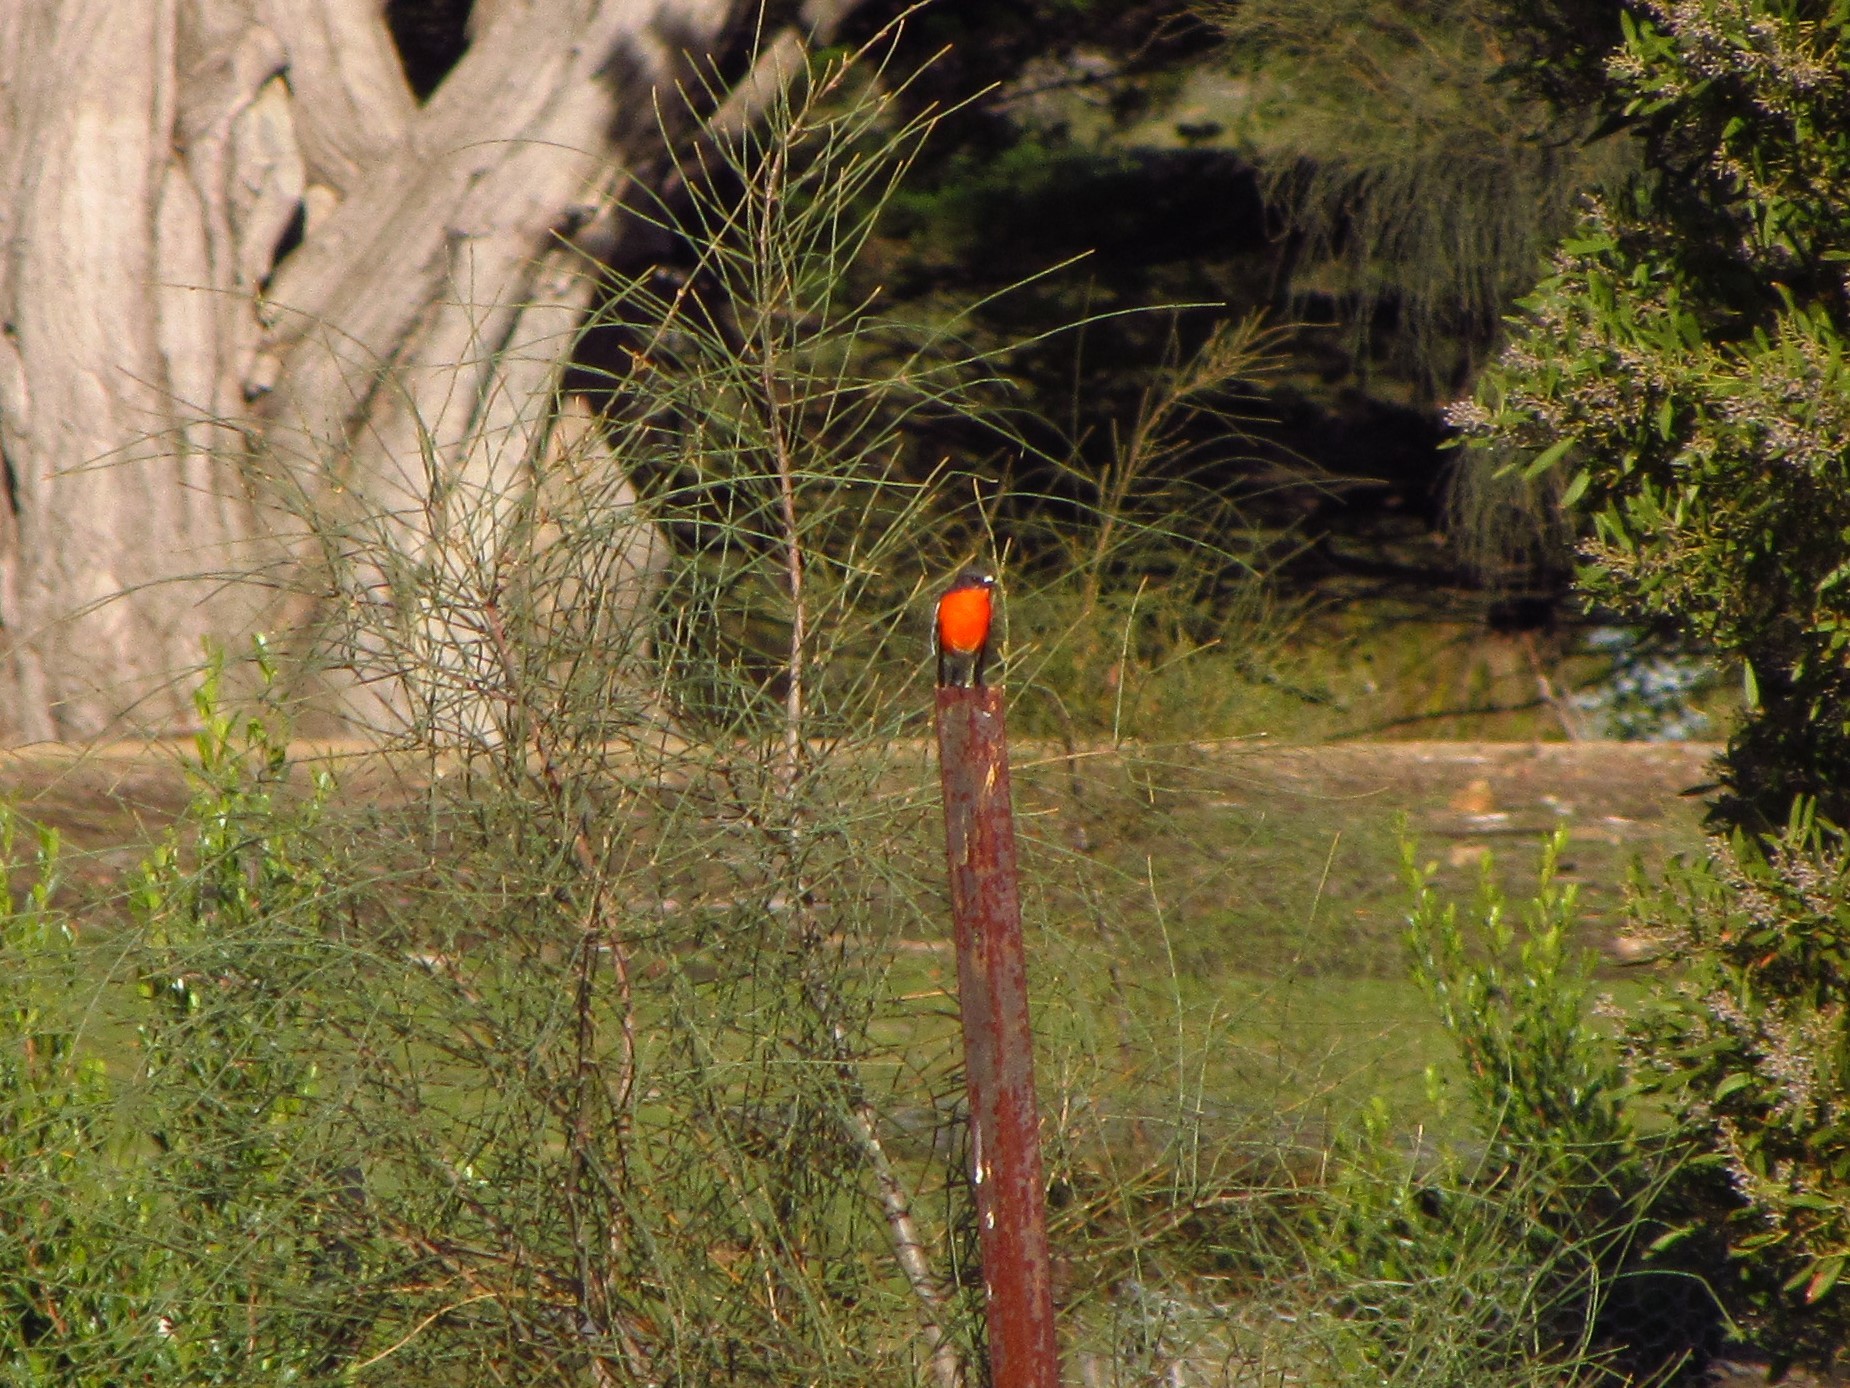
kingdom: Animalia
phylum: Chordata
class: Aves
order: Passeriformes
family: Petroicidae
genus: Petroica
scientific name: Petroica phoenicea
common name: Flame robin
